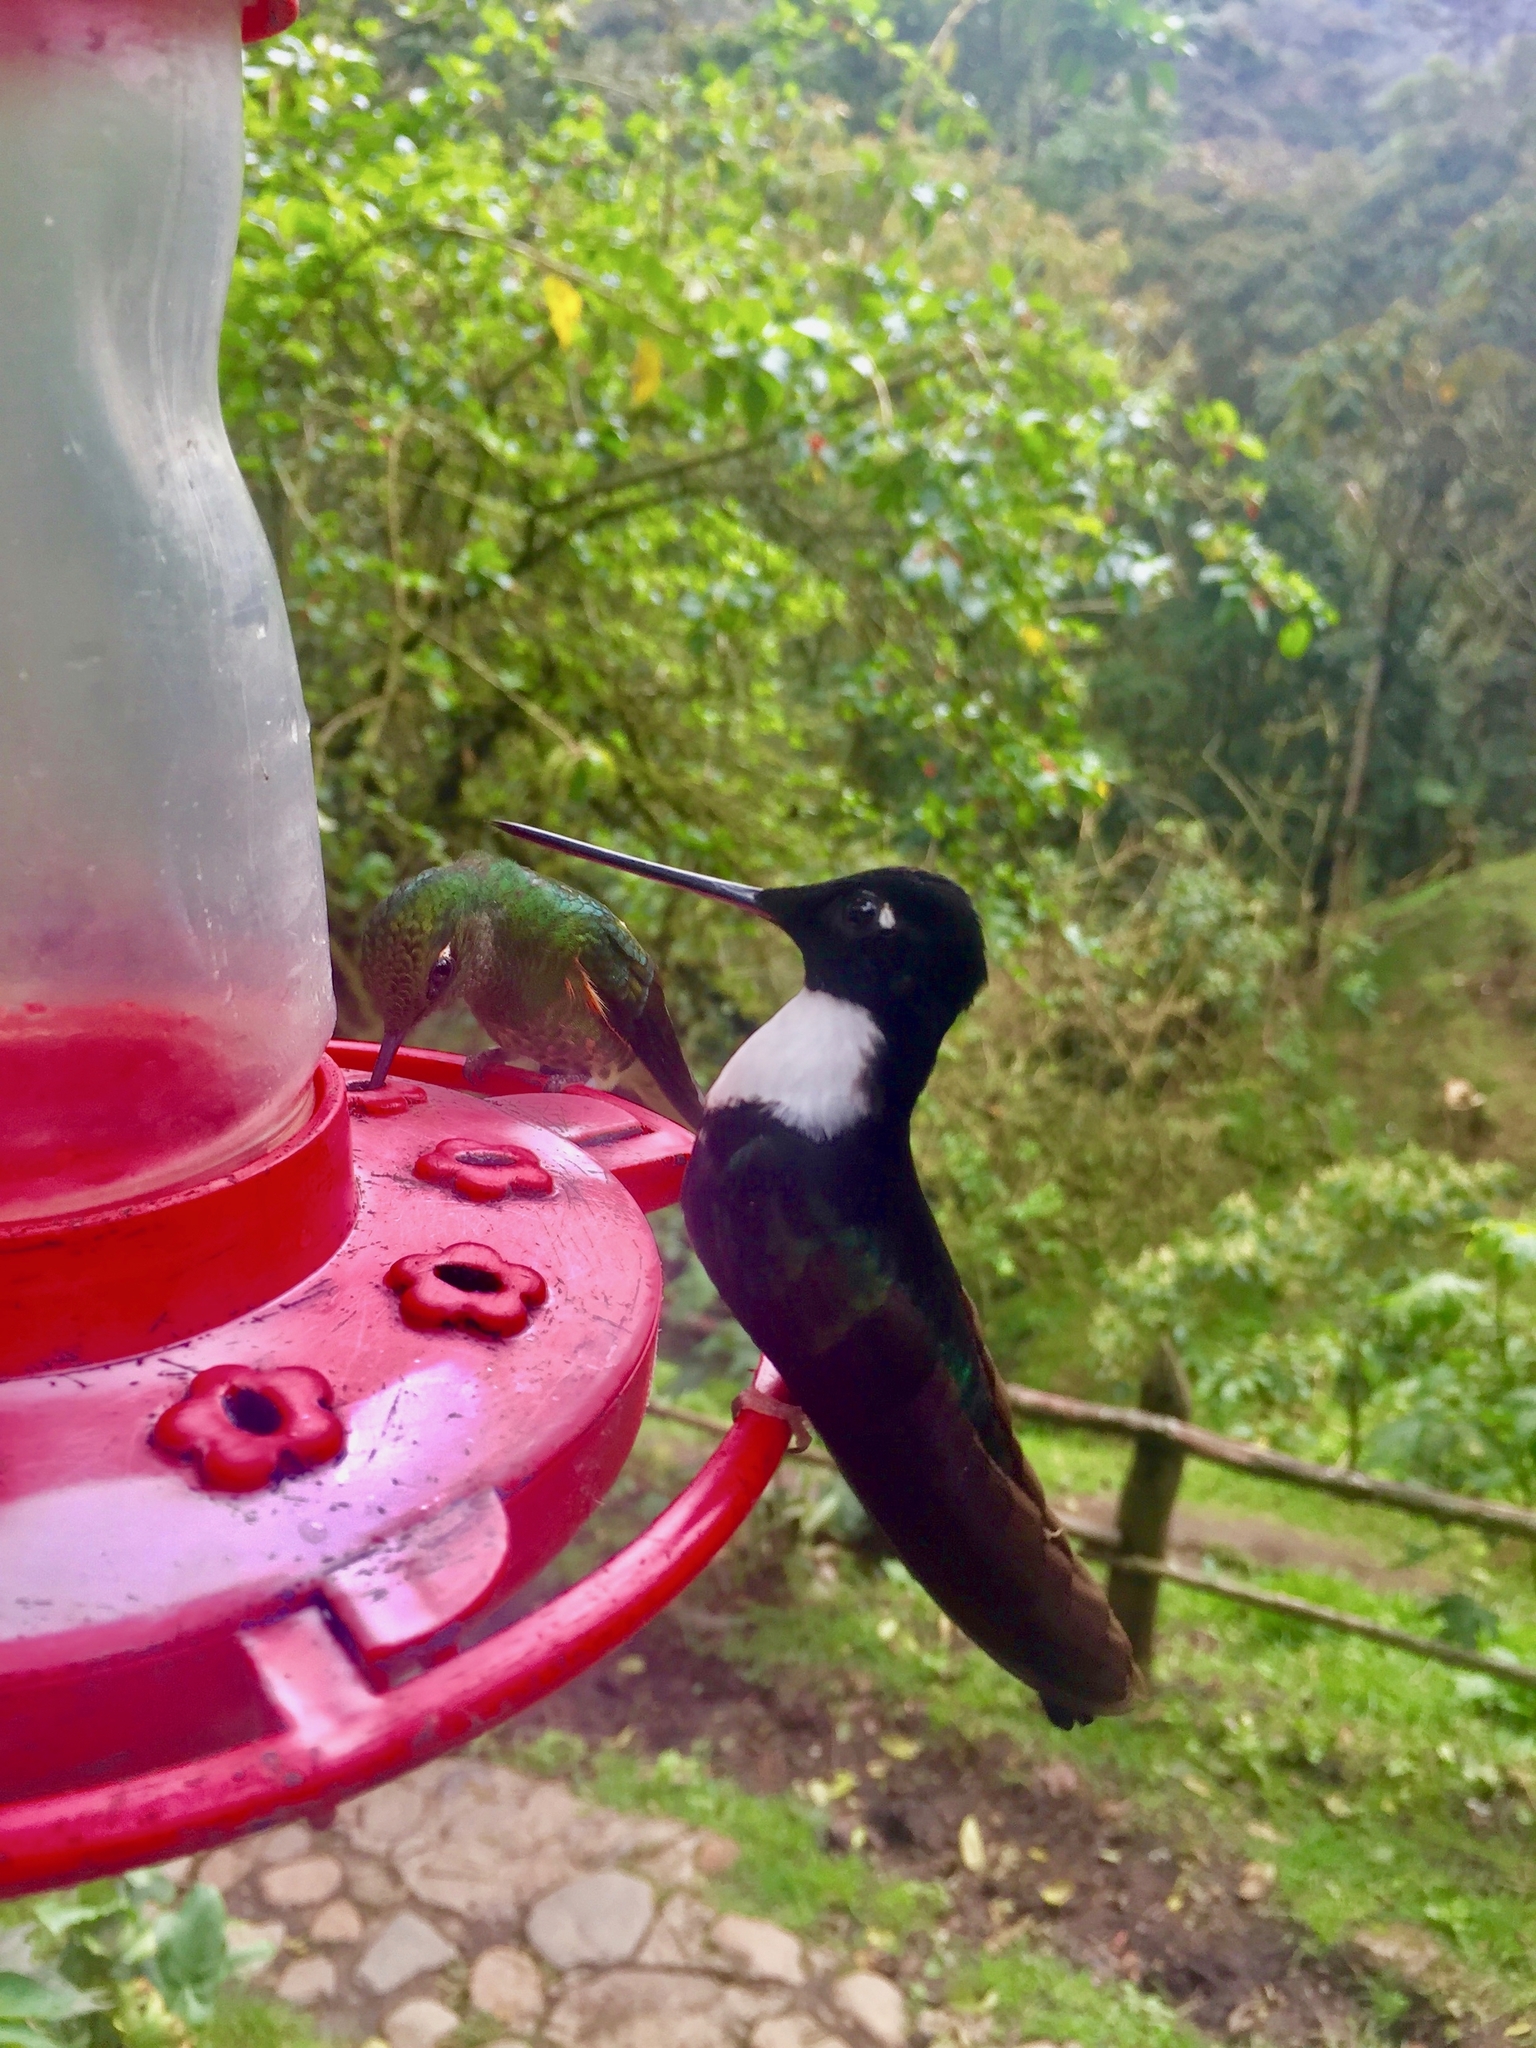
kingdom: Animalia
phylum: Chordata
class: Aves
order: Apodiformes
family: Trochilidae
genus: Coeligena
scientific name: Coeligena torquata
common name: Collared inca
